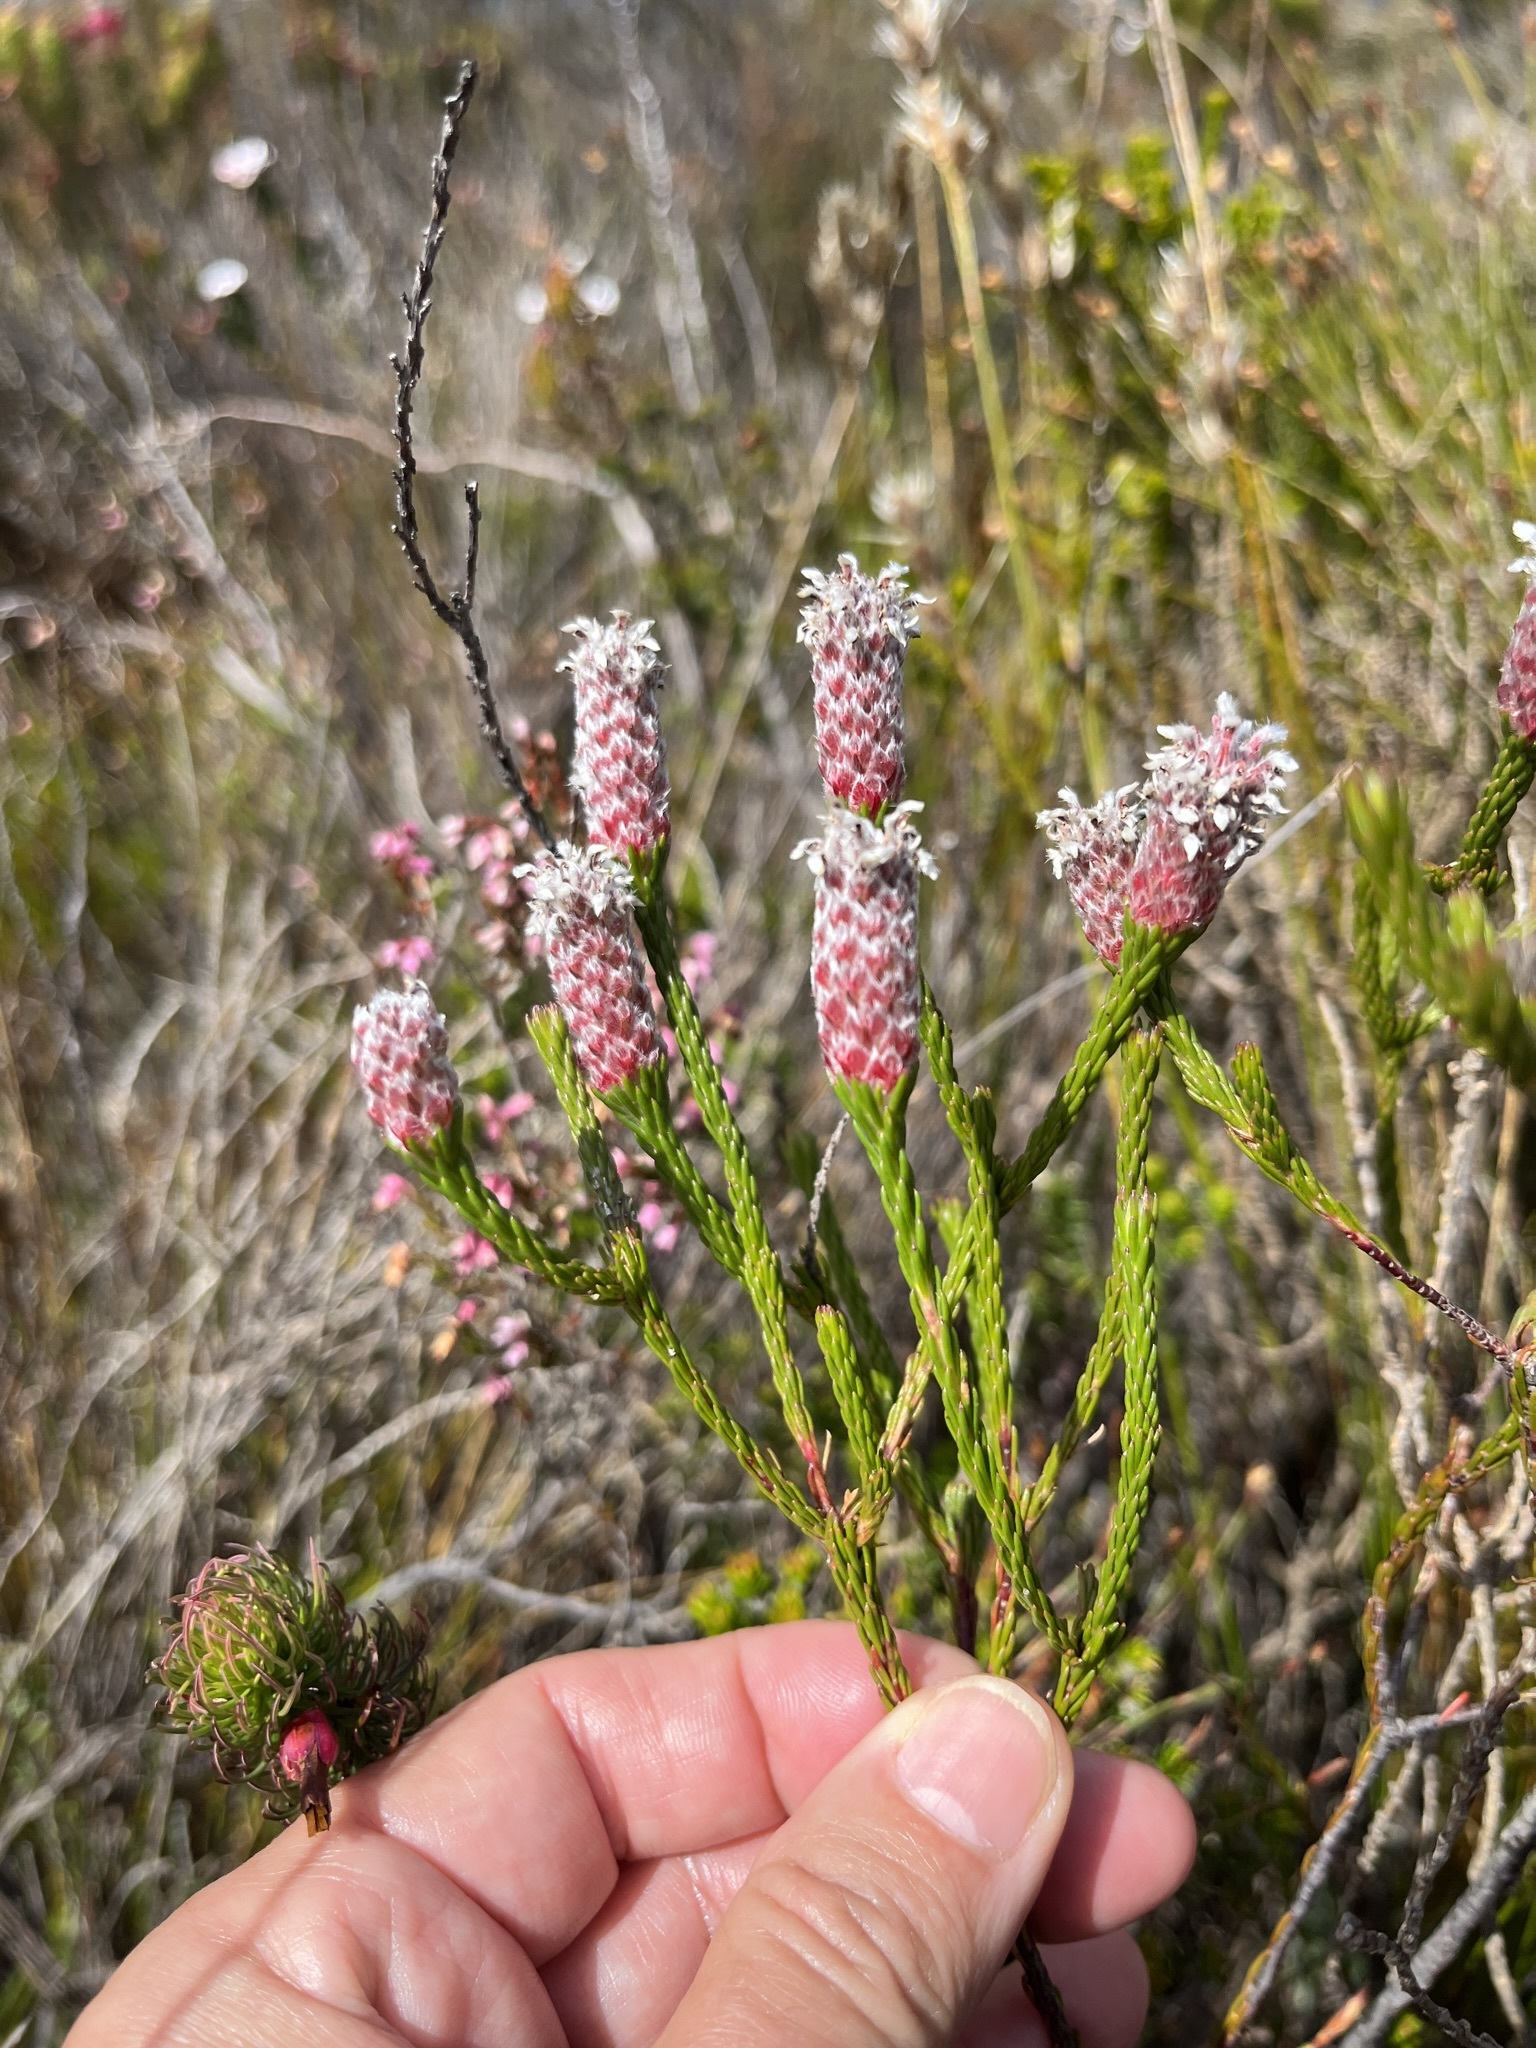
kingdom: Plantae
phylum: Tracheophyta
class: Magnoliopsida
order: Proteales
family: Proteaceae
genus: Spatalla
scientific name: Spatalla ericoides
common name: Erica-leaf spoon
